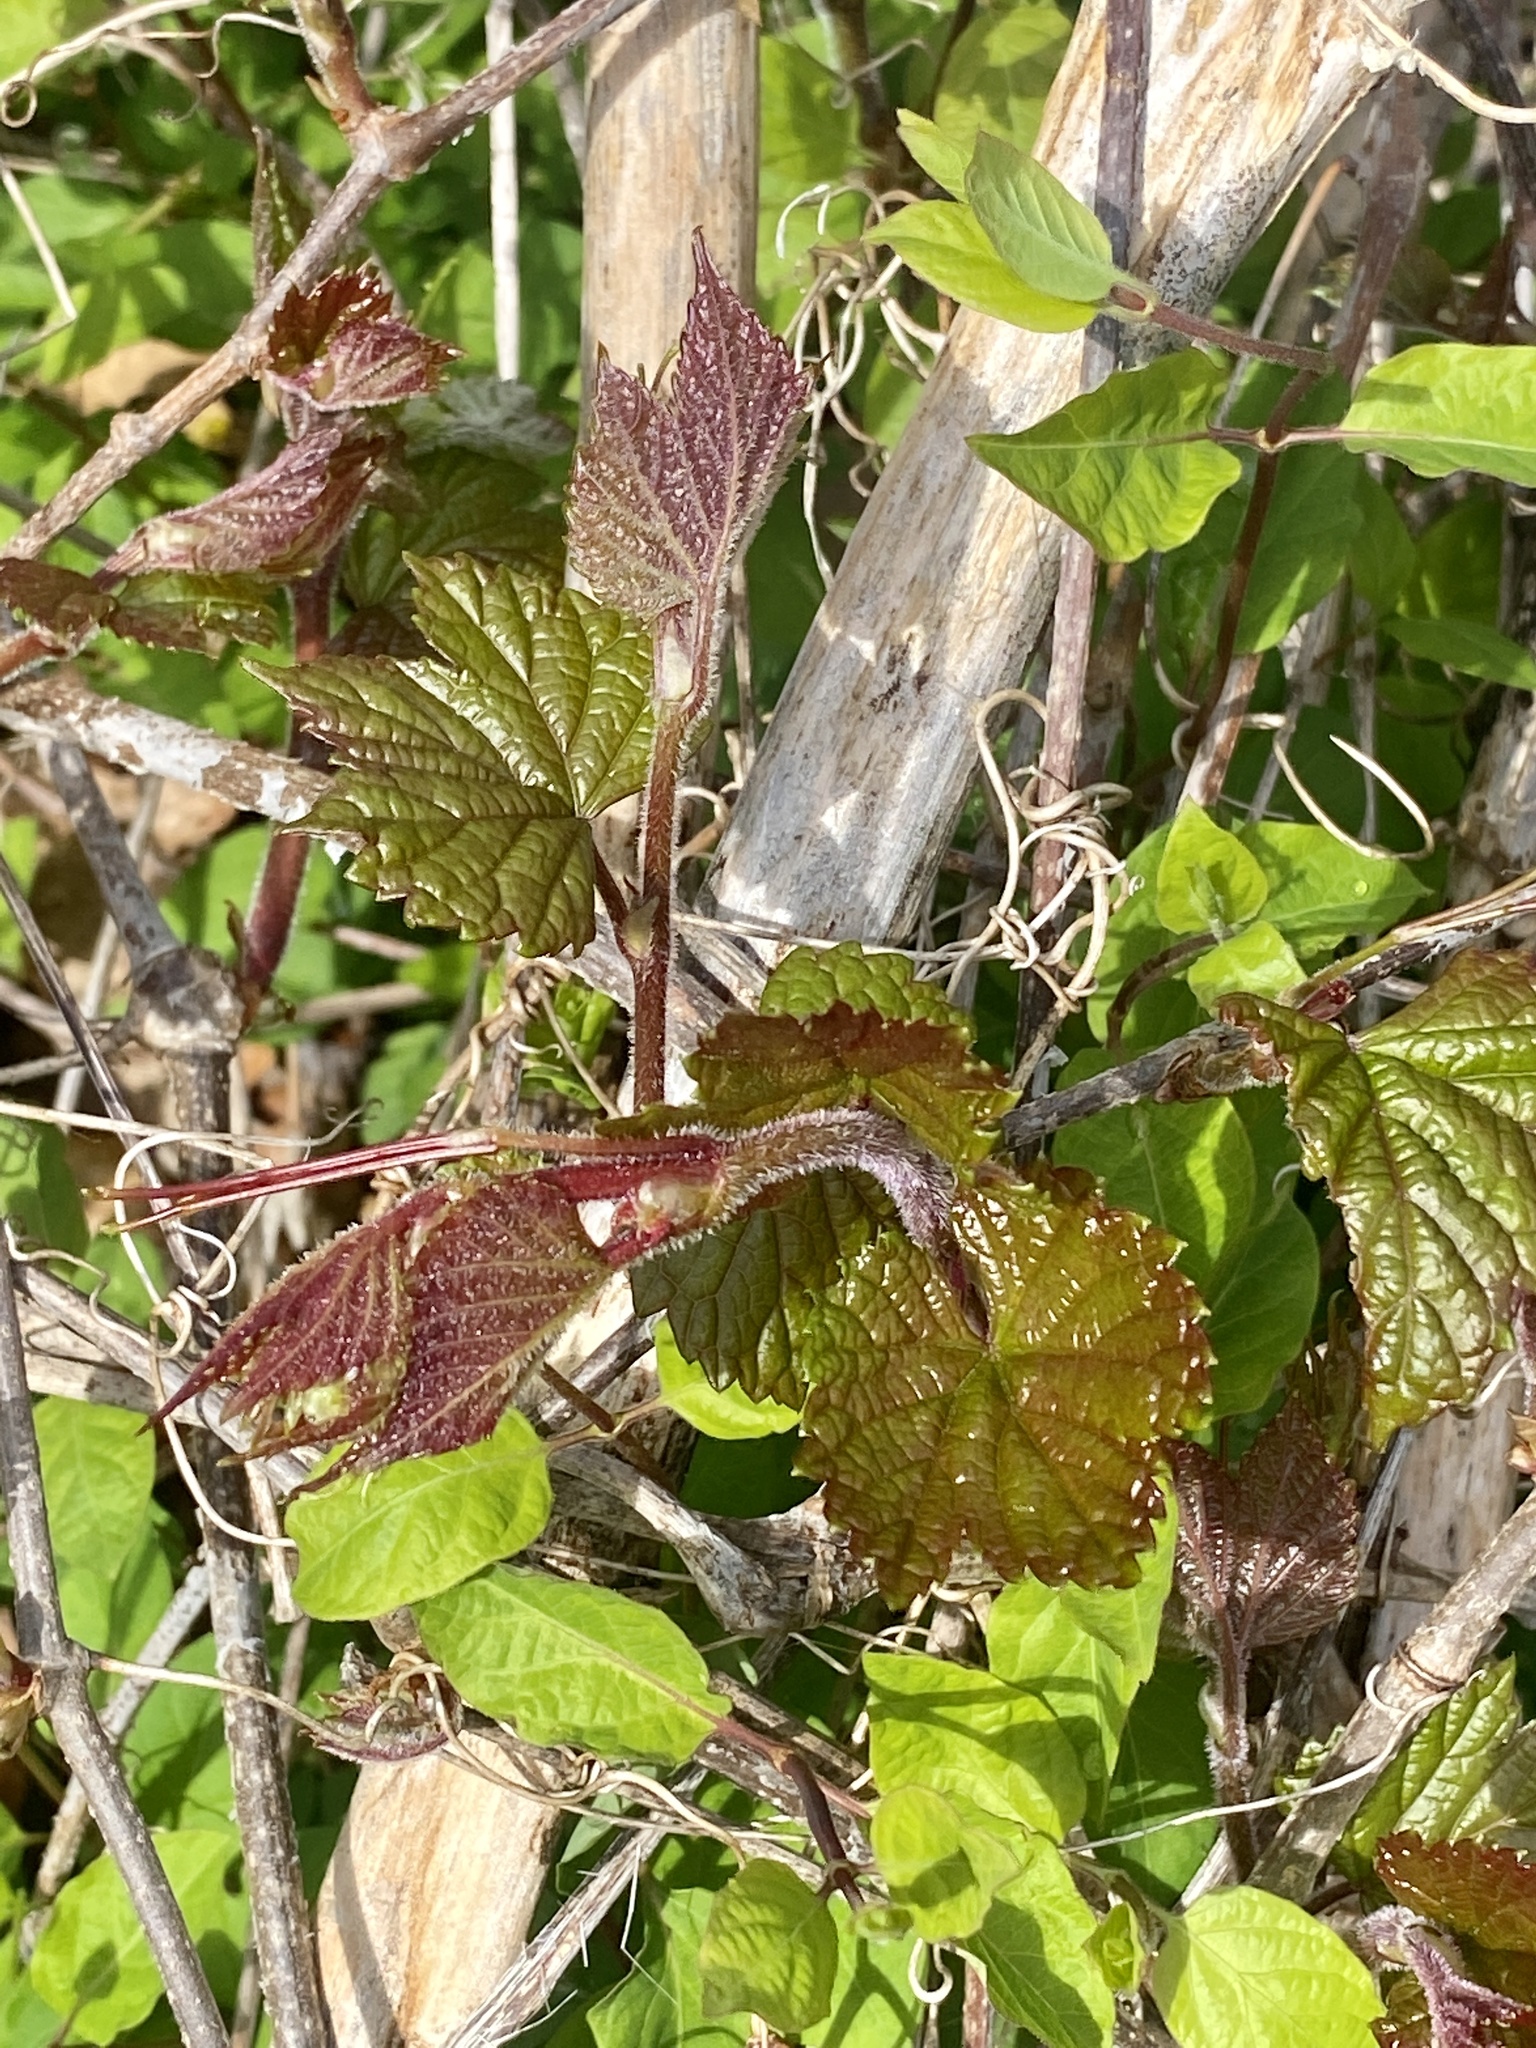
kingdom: Plantae
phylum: Tracheophyta
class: Magnoliopsida
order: Vitales
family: Vitaceae
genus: Ampelopsis
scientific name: Ampelopsis glandulosa
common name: Amur peppervine
